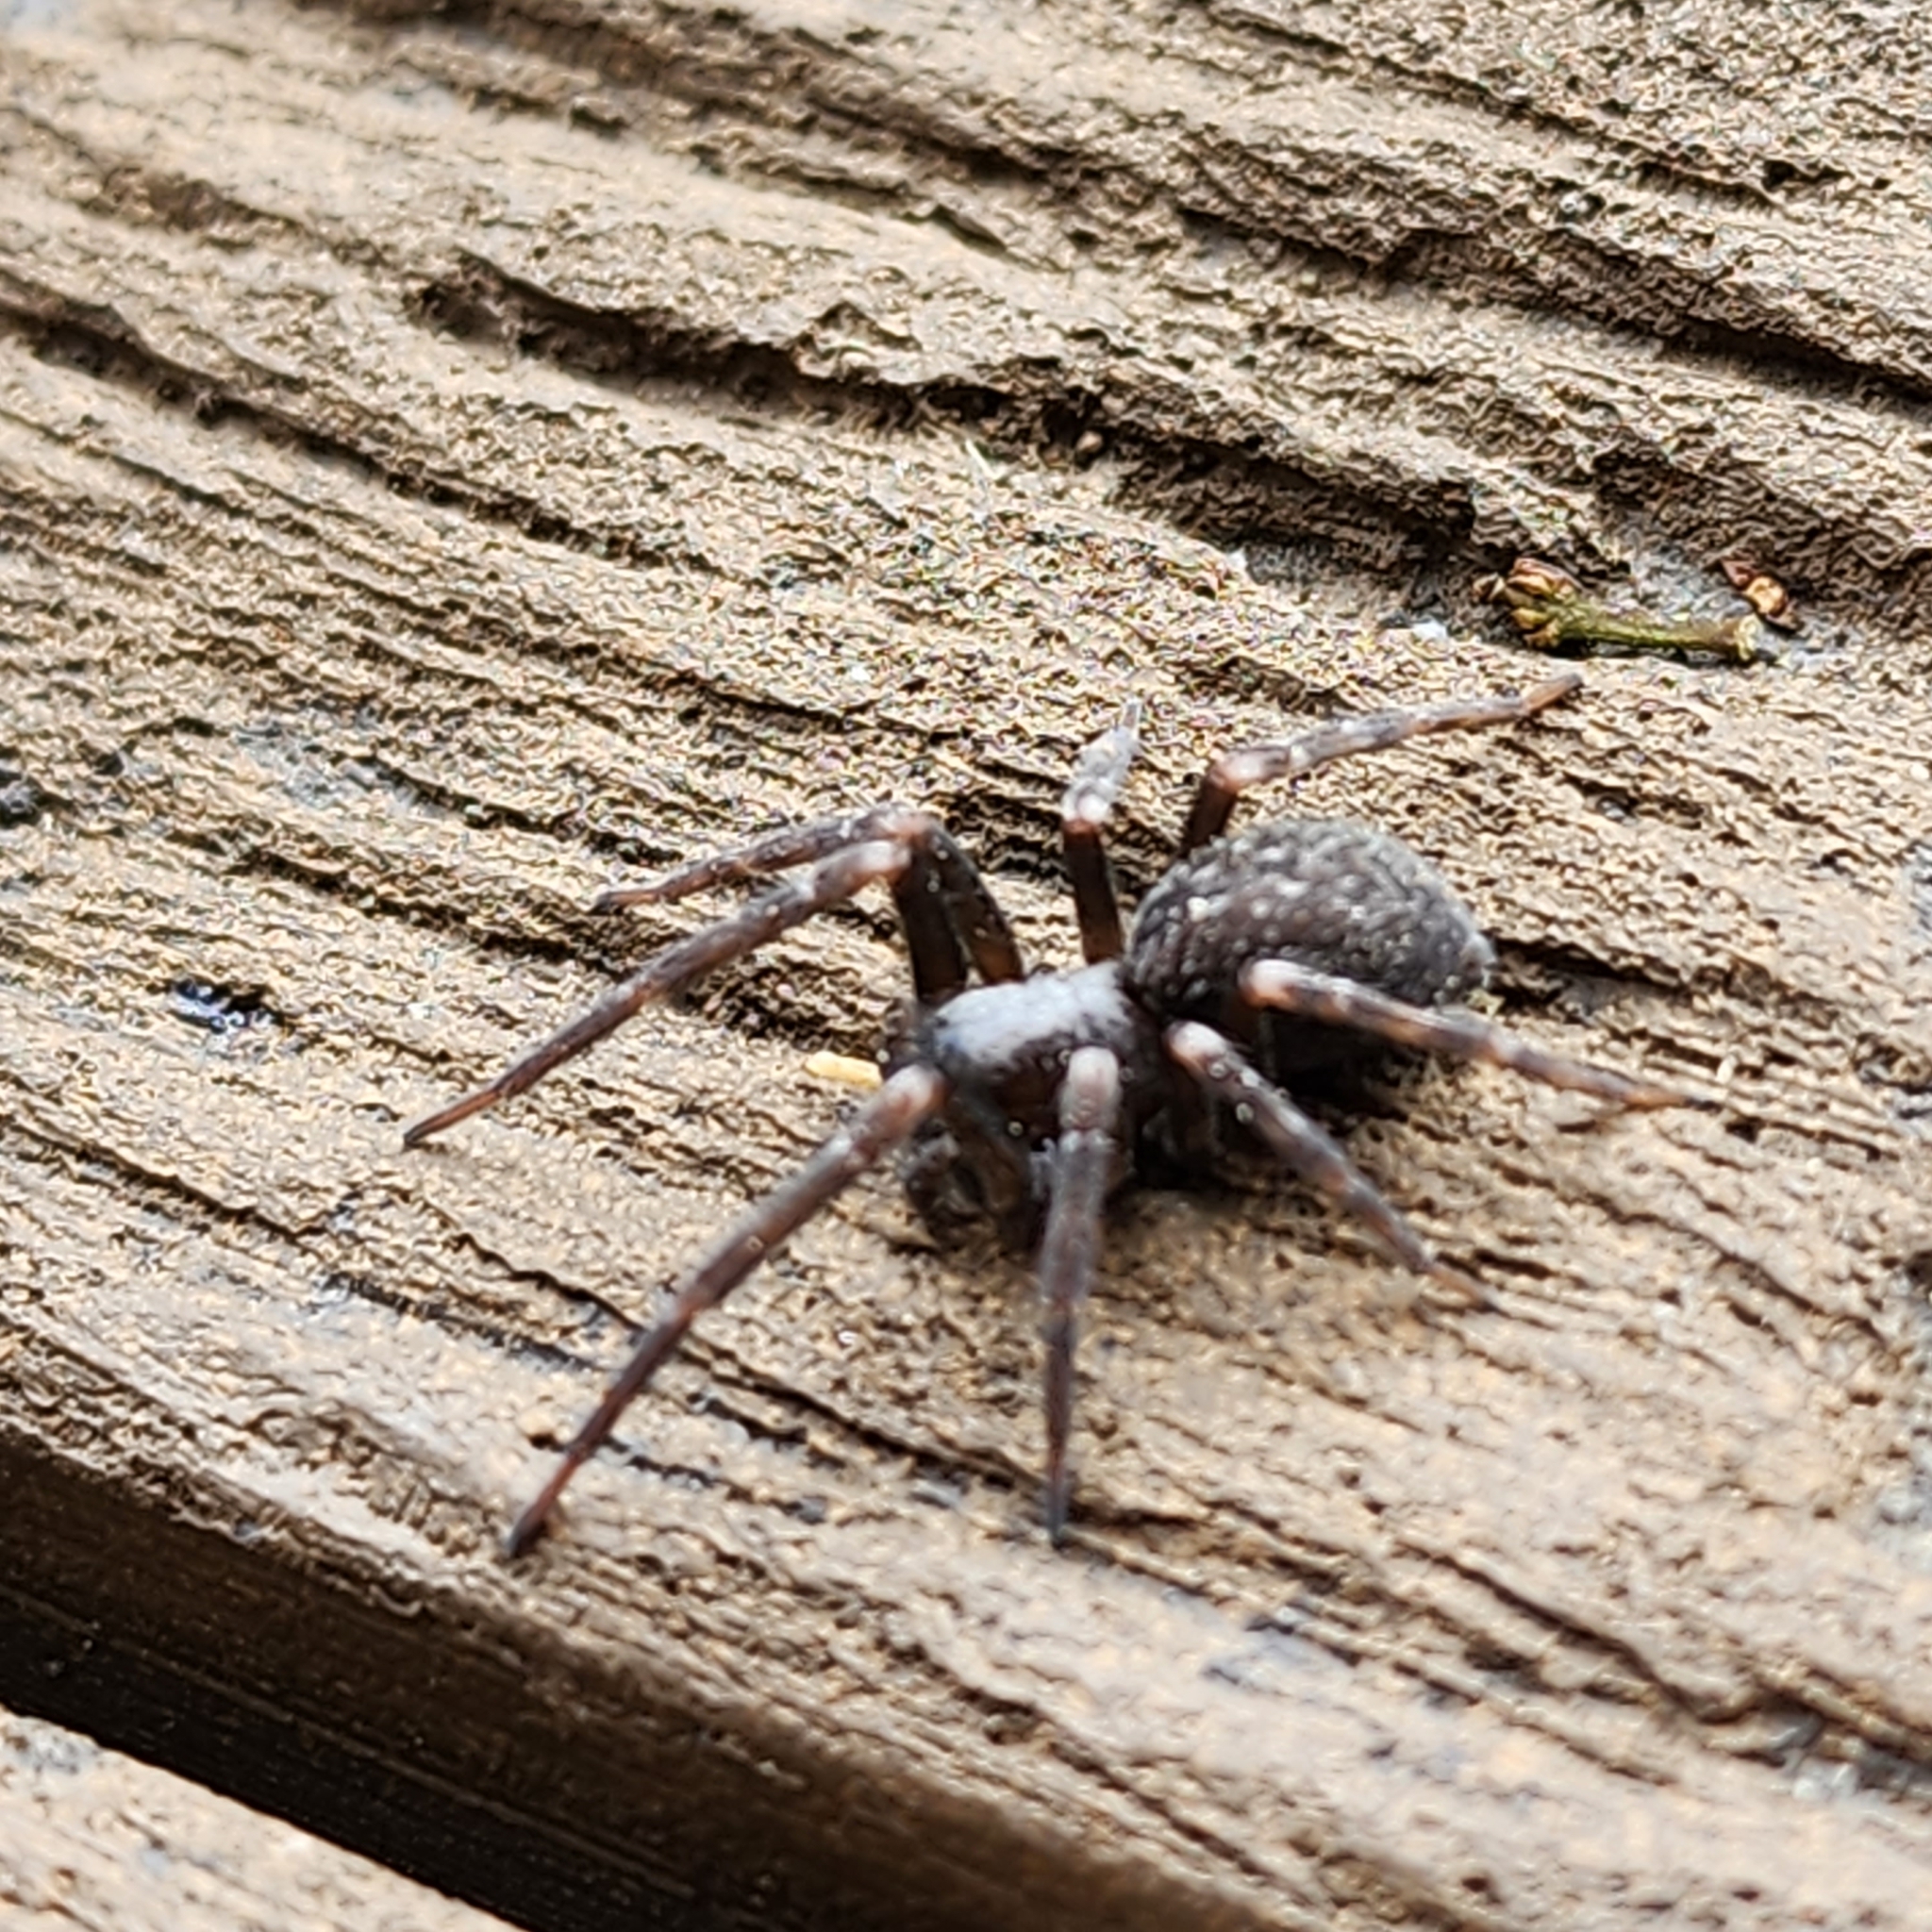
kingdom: Animalia
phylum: Arthropoda
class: Arachnida
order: Araneae
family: Desidae
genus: Badumna
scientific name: Badumna insignis
